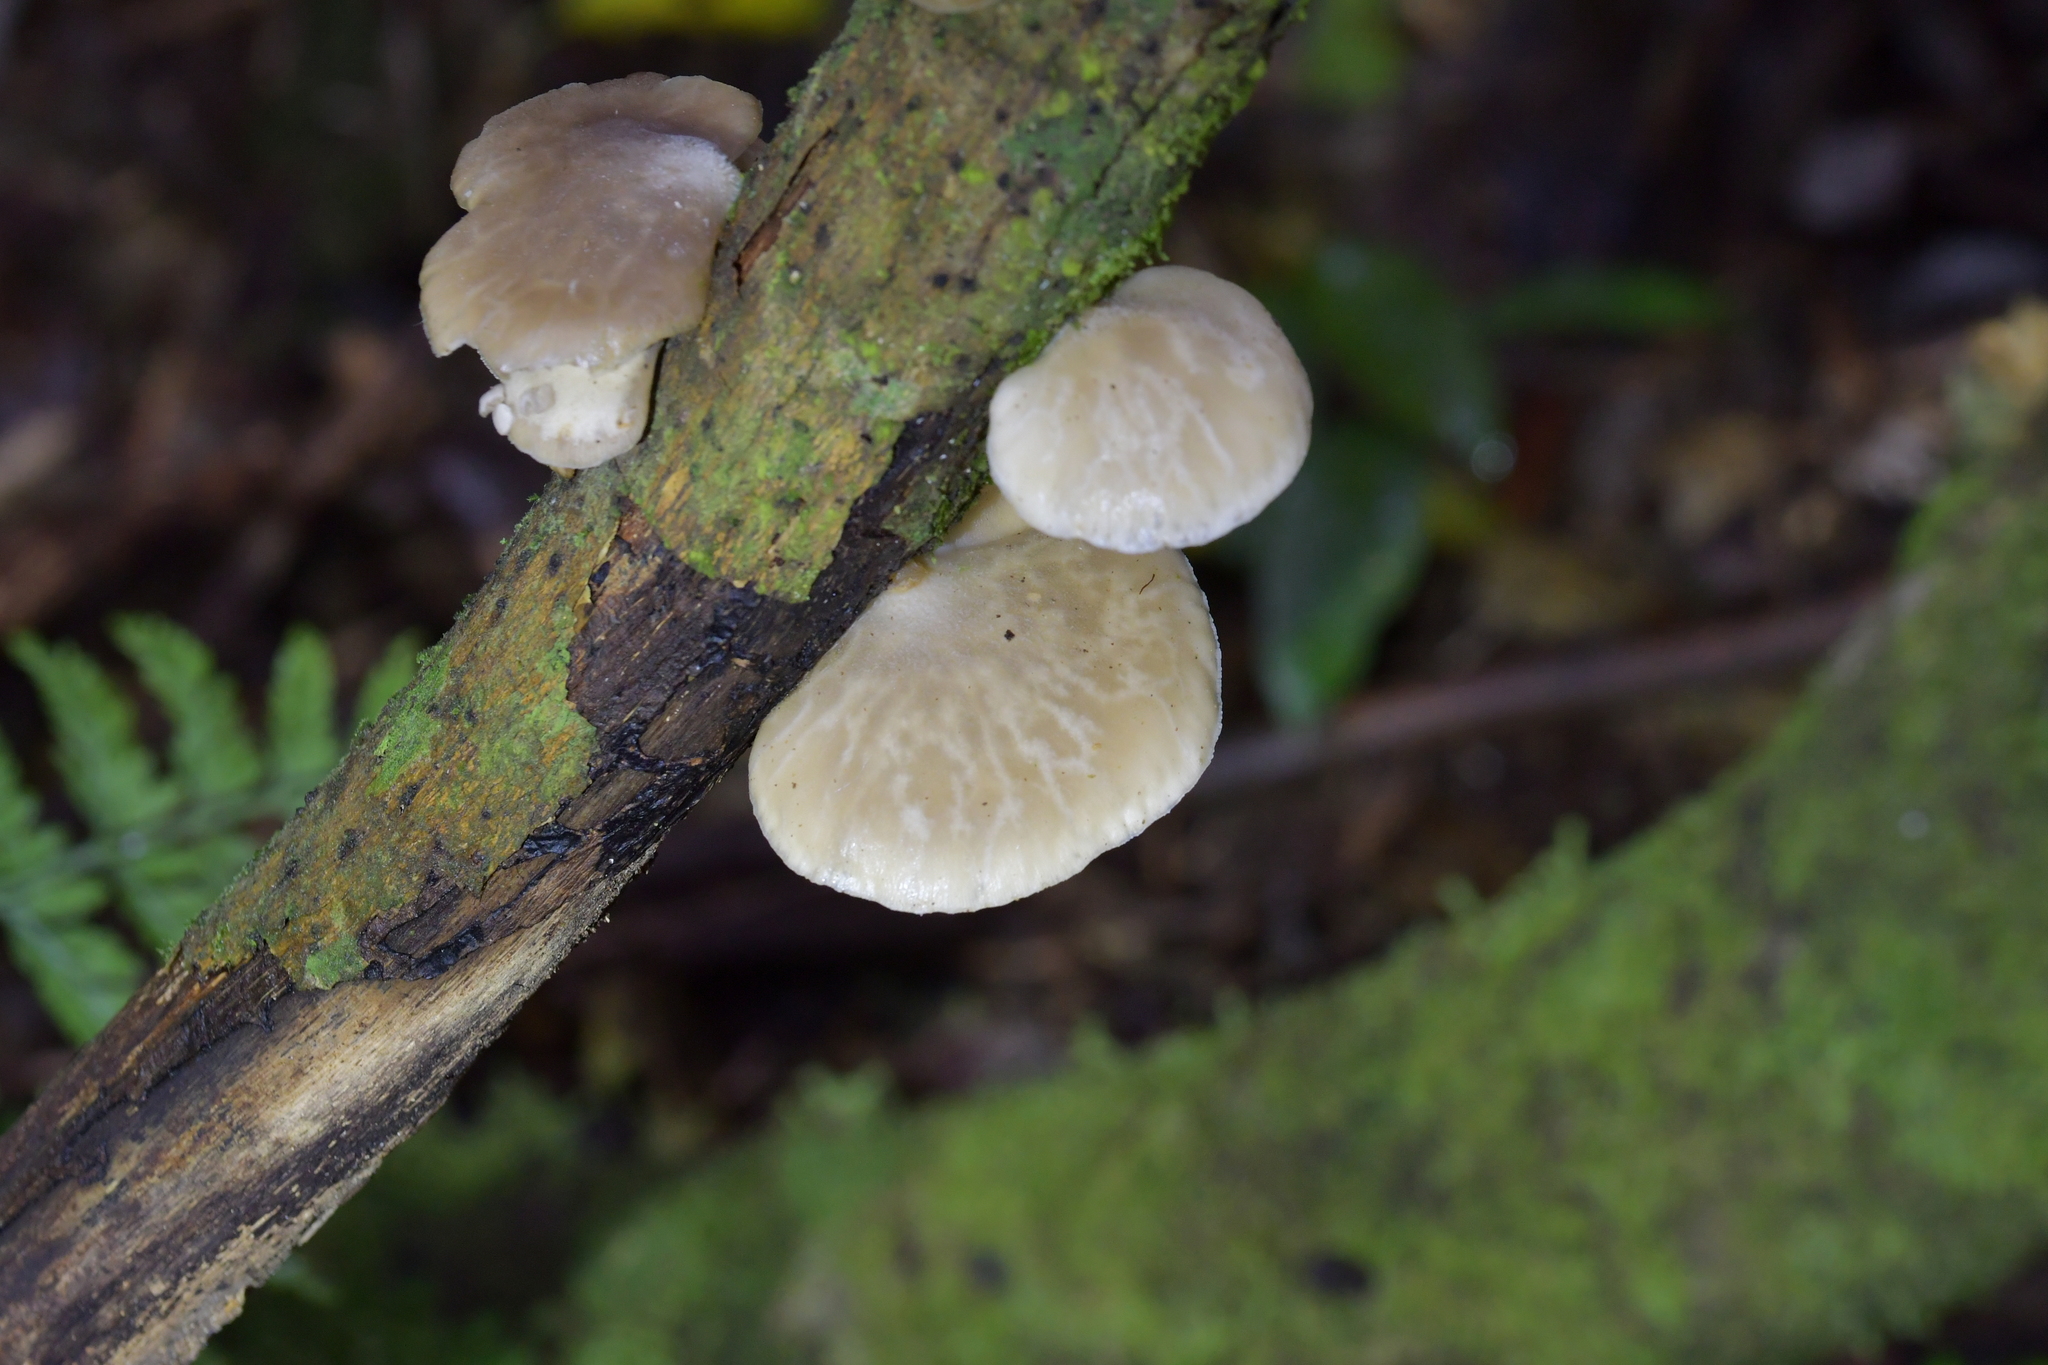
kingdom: Fungi
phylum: Basidiomycota
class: Agaricomycetes
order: Agaricales
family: Tricholomataceae
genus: Conchomyces
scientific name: Conchomyces bursiformis
